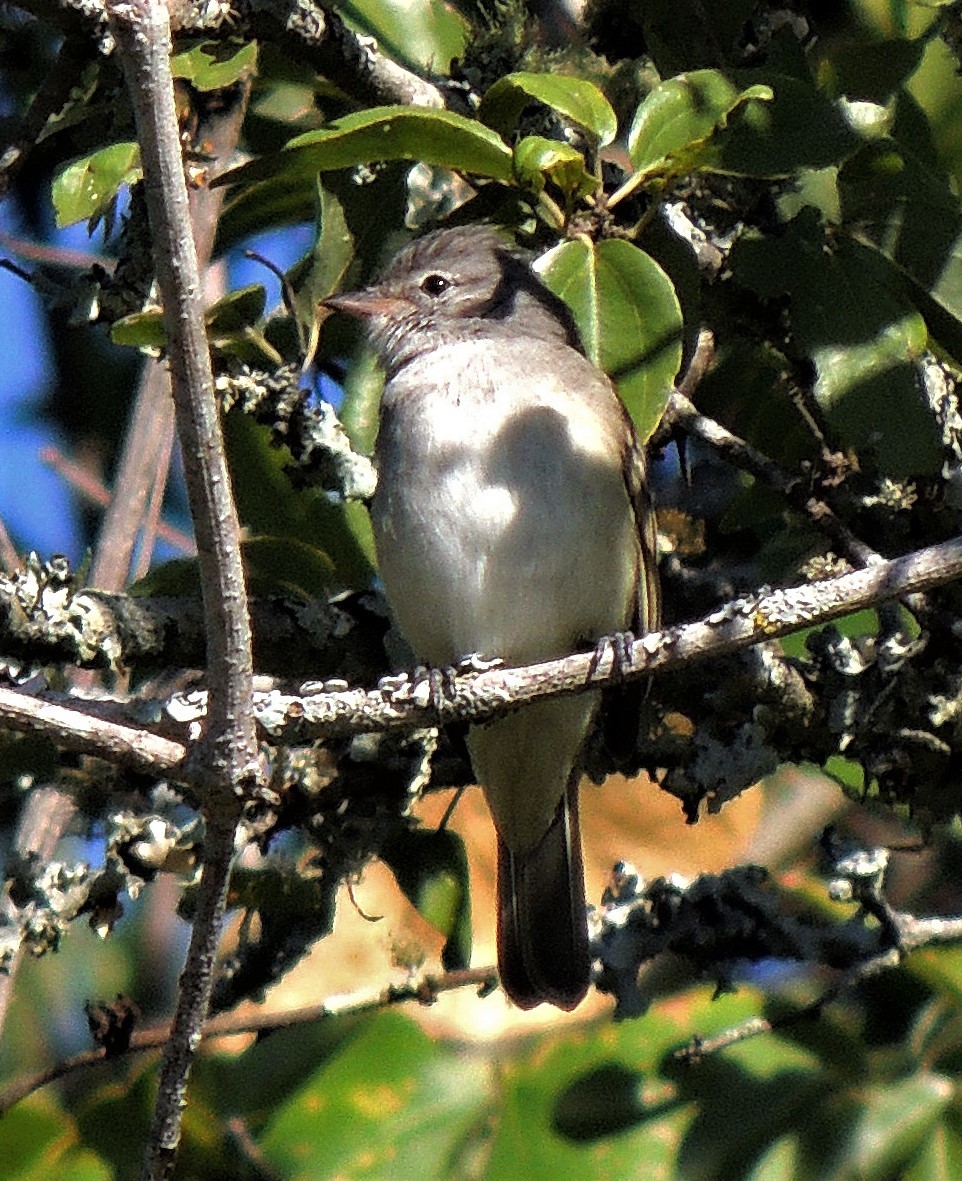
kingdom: Animalia
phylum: Chordata
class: Aves
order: Passeriformes
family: Tyrannidae
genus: Camptostoma
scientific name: Camptostoma obsoletum
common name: Southern beardless-tyrannulet
